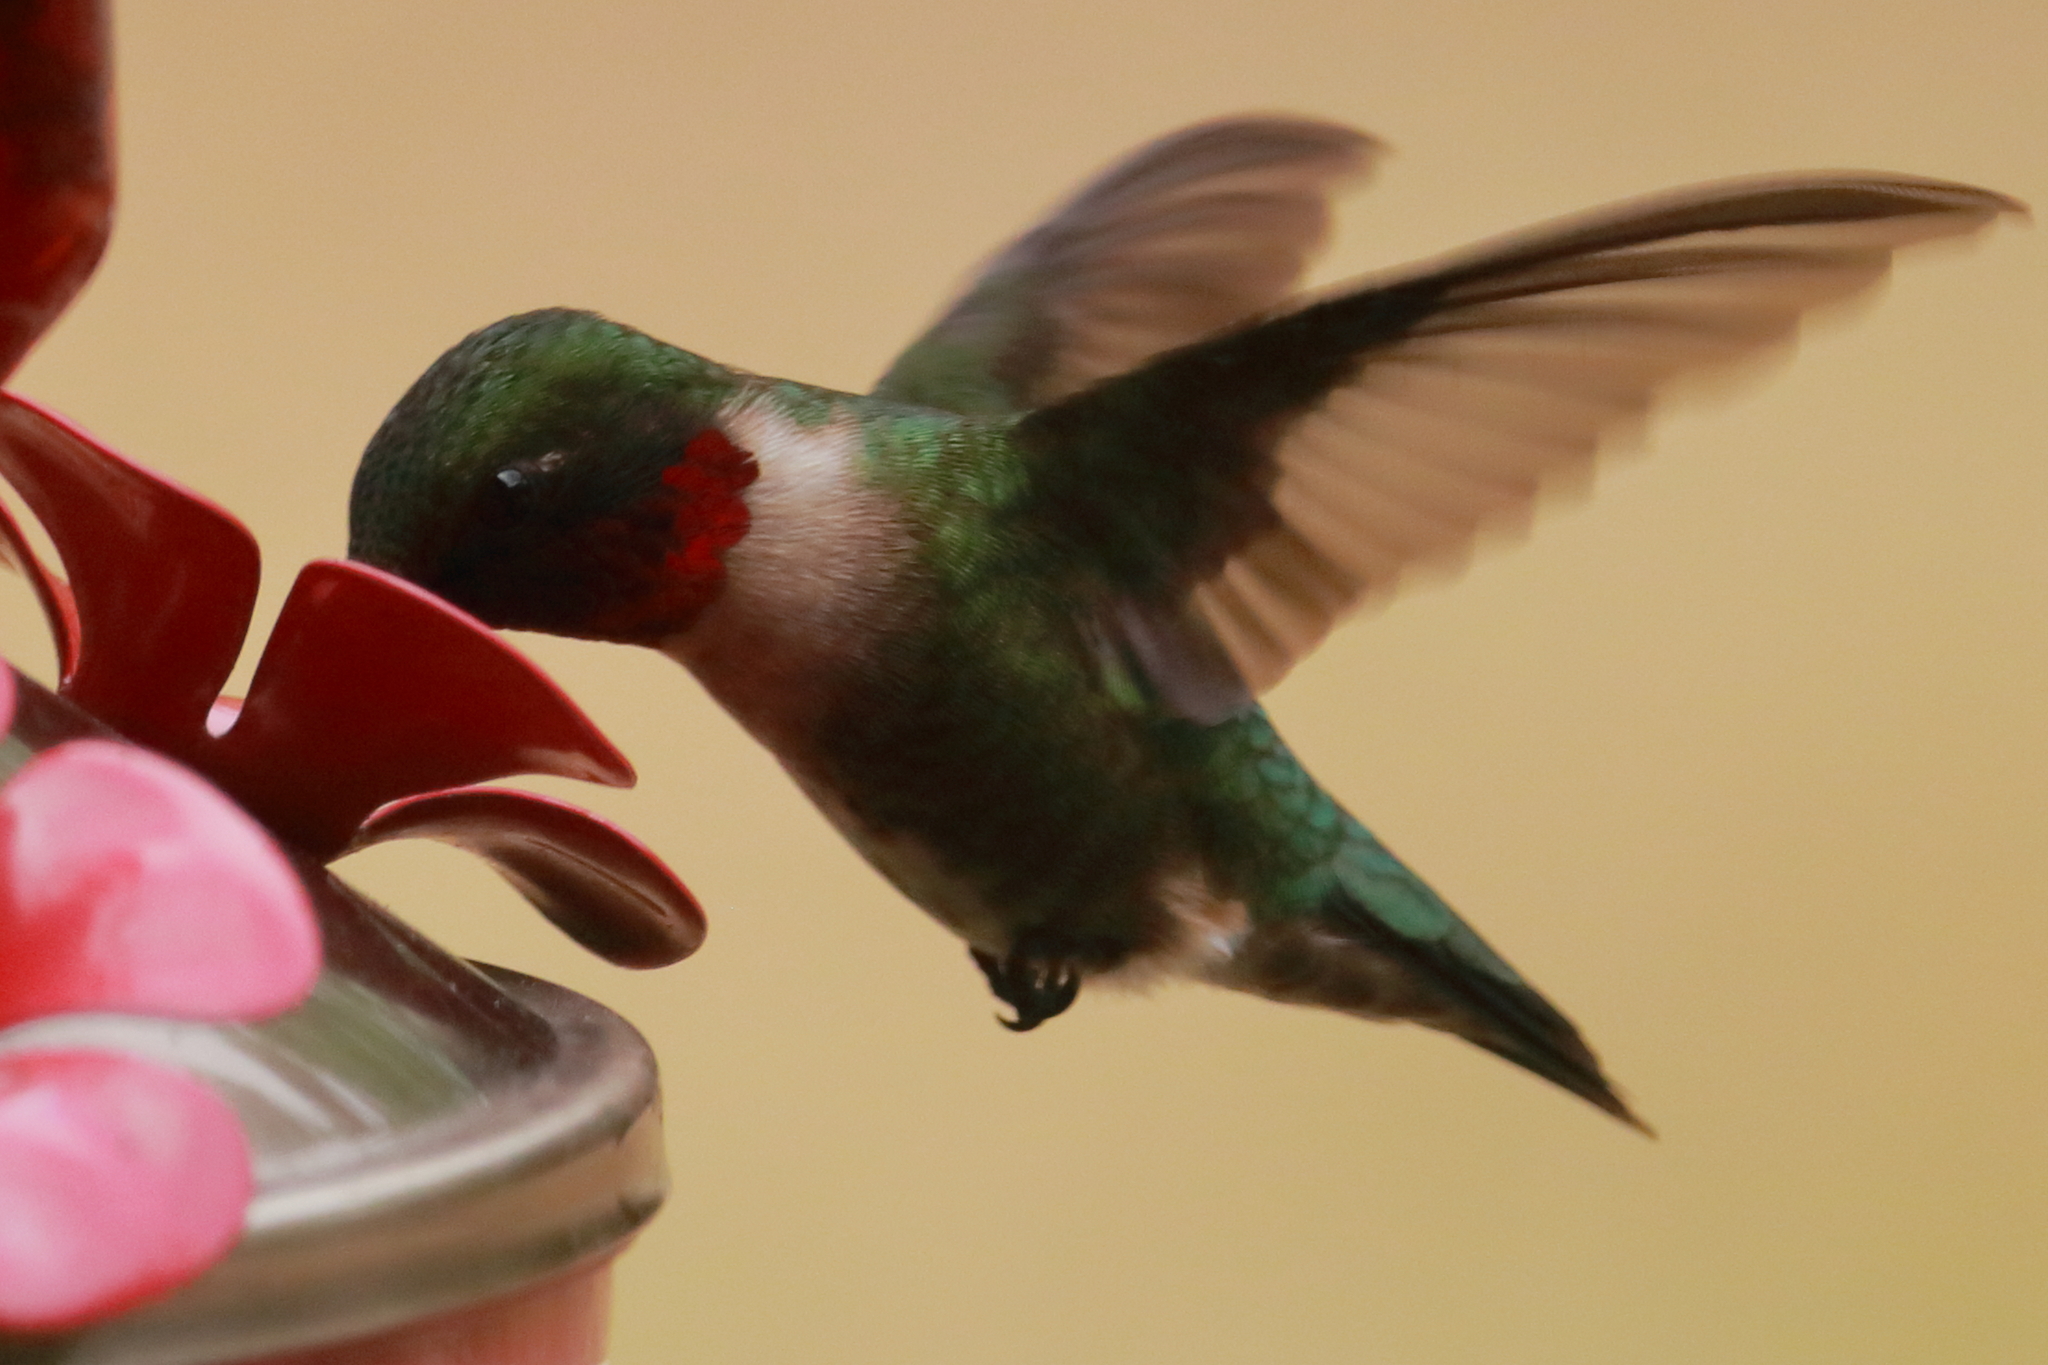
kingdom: Animalia
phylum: Chordata
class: Aves
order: Apodiformes
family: Trochilidae
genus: Archilochus
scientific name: Archilochus colubris
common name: Ruby-throated hummingbird
